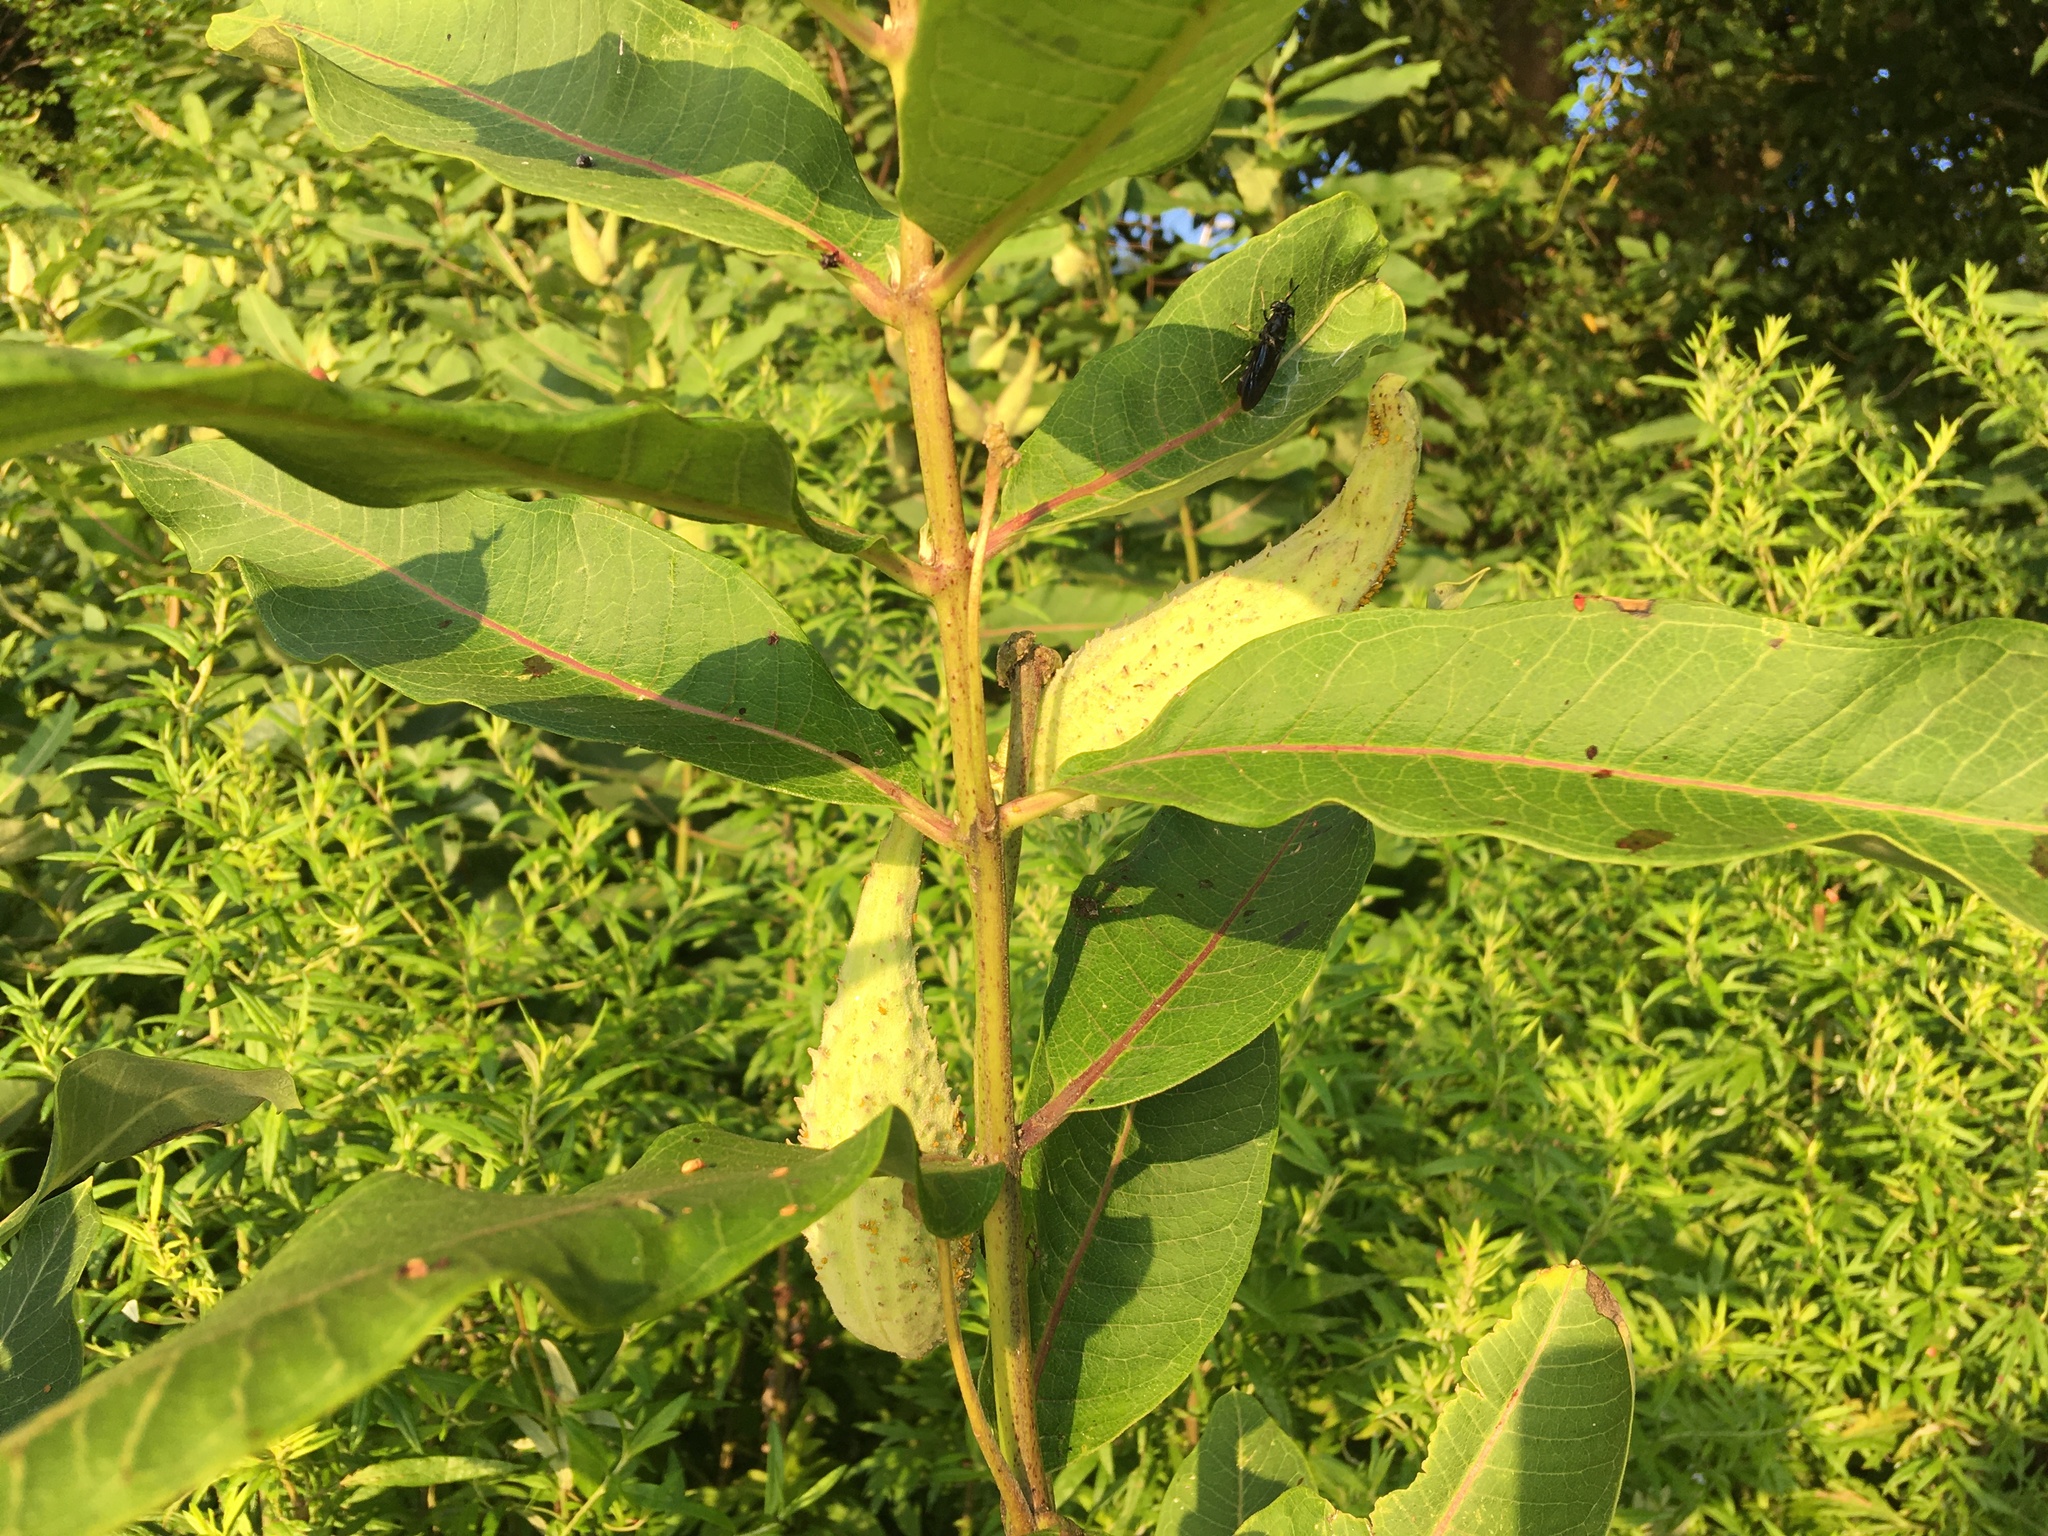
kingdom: Plantae
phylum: Tracheophyta
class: Magnoliopsida
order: Gentianales
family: Apocynaceae
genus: Asclepias
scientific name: Asclepias syriaca
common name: Common milkweed
